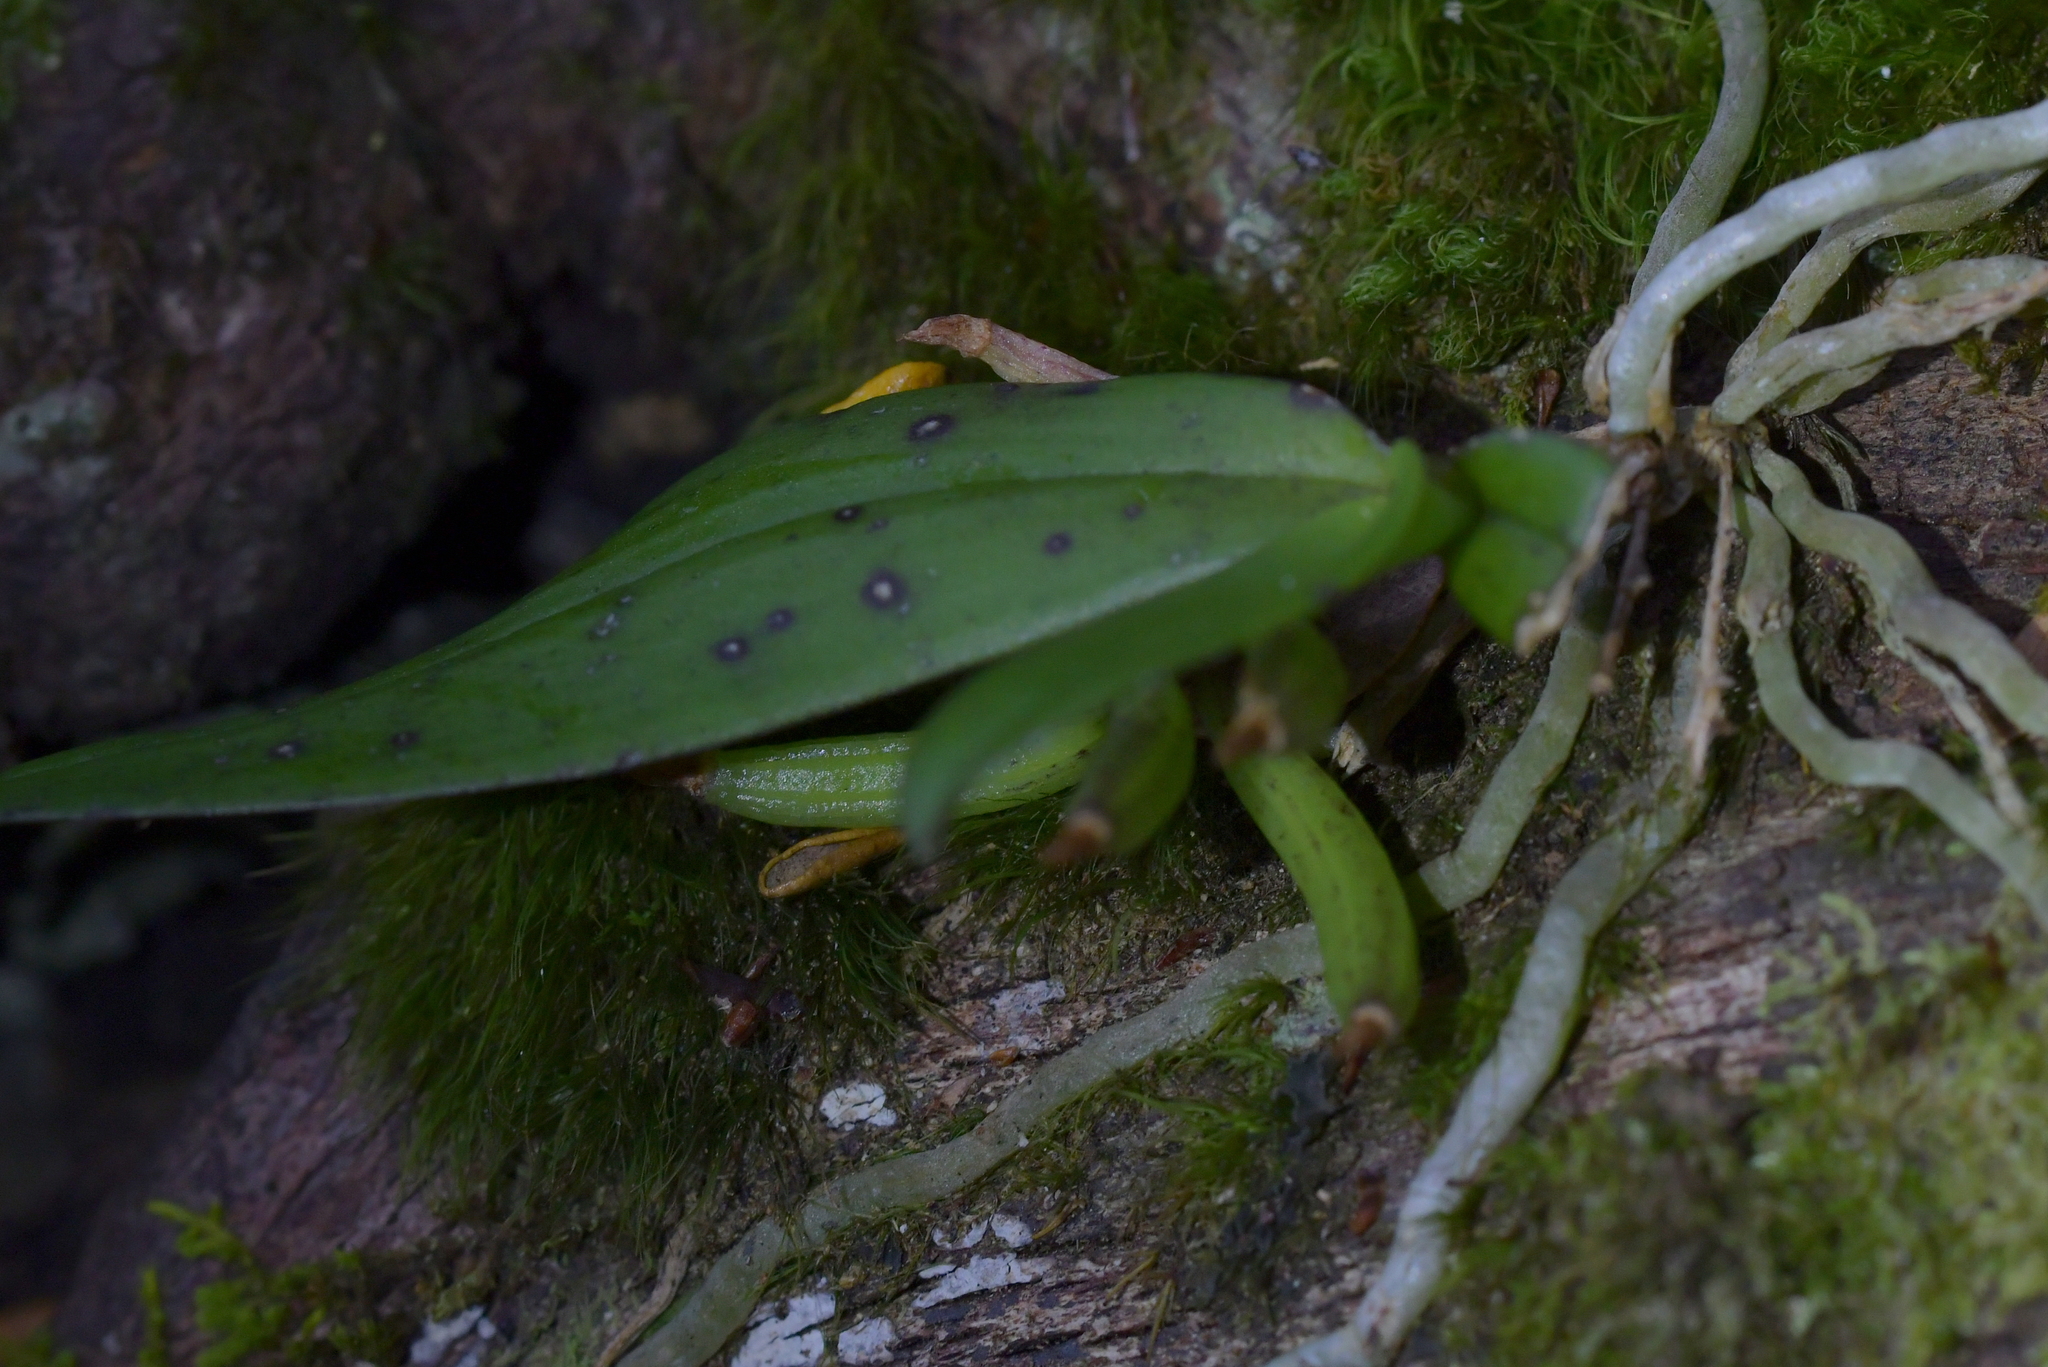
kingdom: Plantae
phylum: Tracheophyta
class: Liliopsida
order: Asparagales
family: Orchidaceae
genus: Drymoanthus
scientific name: Drymoanthus adversus
